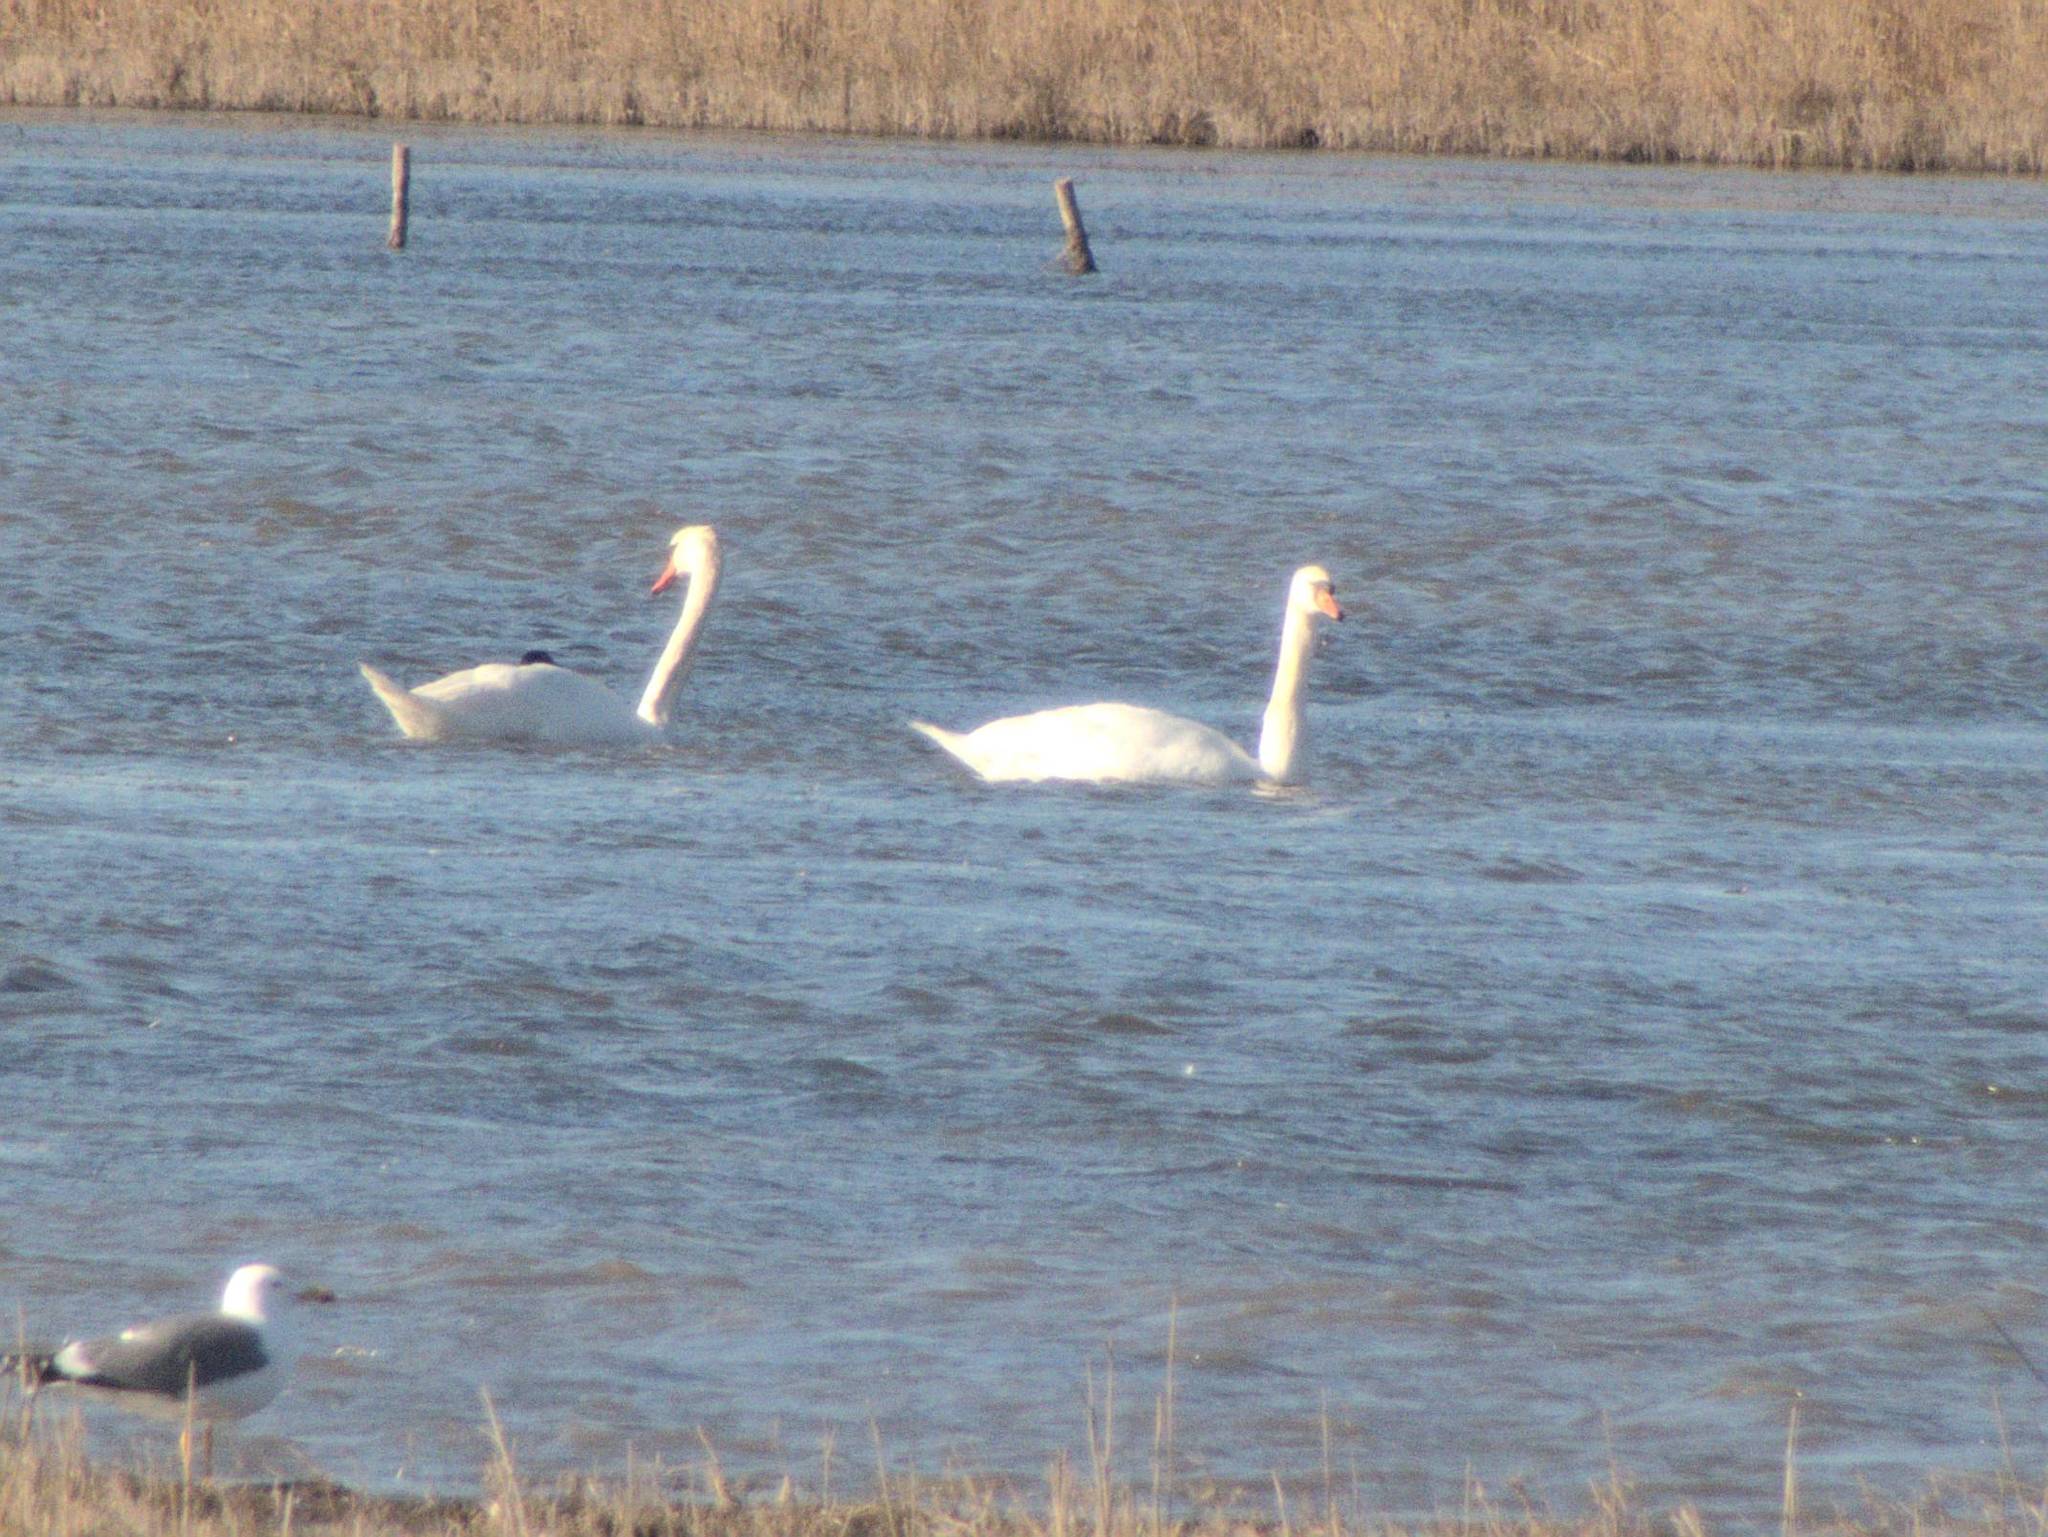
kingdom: Animalia
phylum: Chordata
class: Aves
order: Anseriformes
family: Anatidae
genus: Cygnus
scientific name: Cygnus olor
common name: Mute swan
